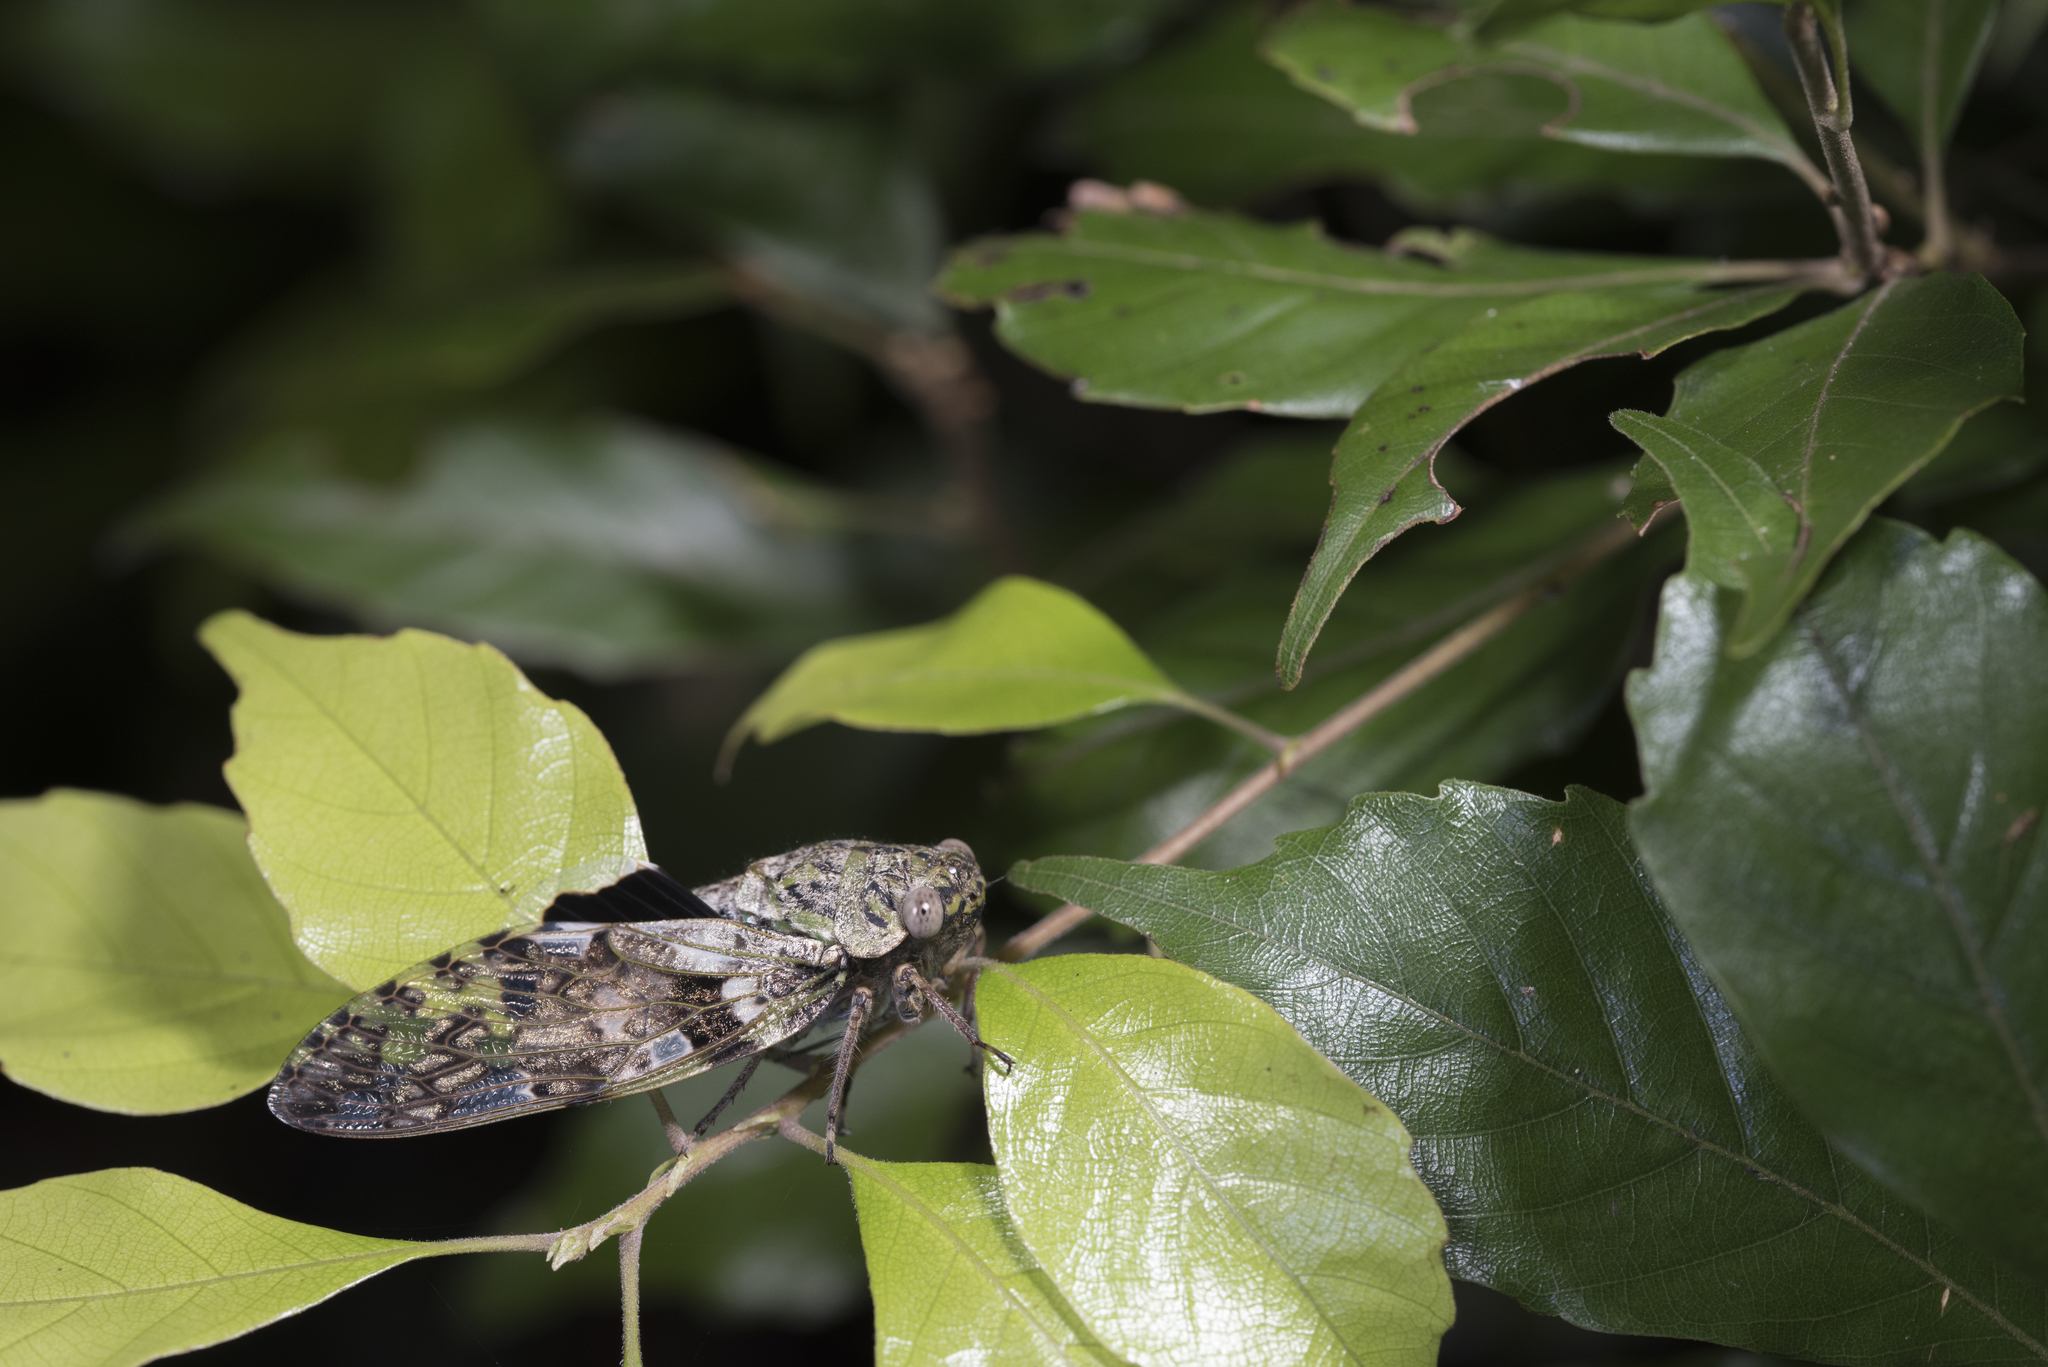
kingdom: Animalia
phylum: Arthropoda
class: Insecta
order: Hemiptera
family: Cicadidae
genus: Platypleura
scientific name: Platypleura takasagona
